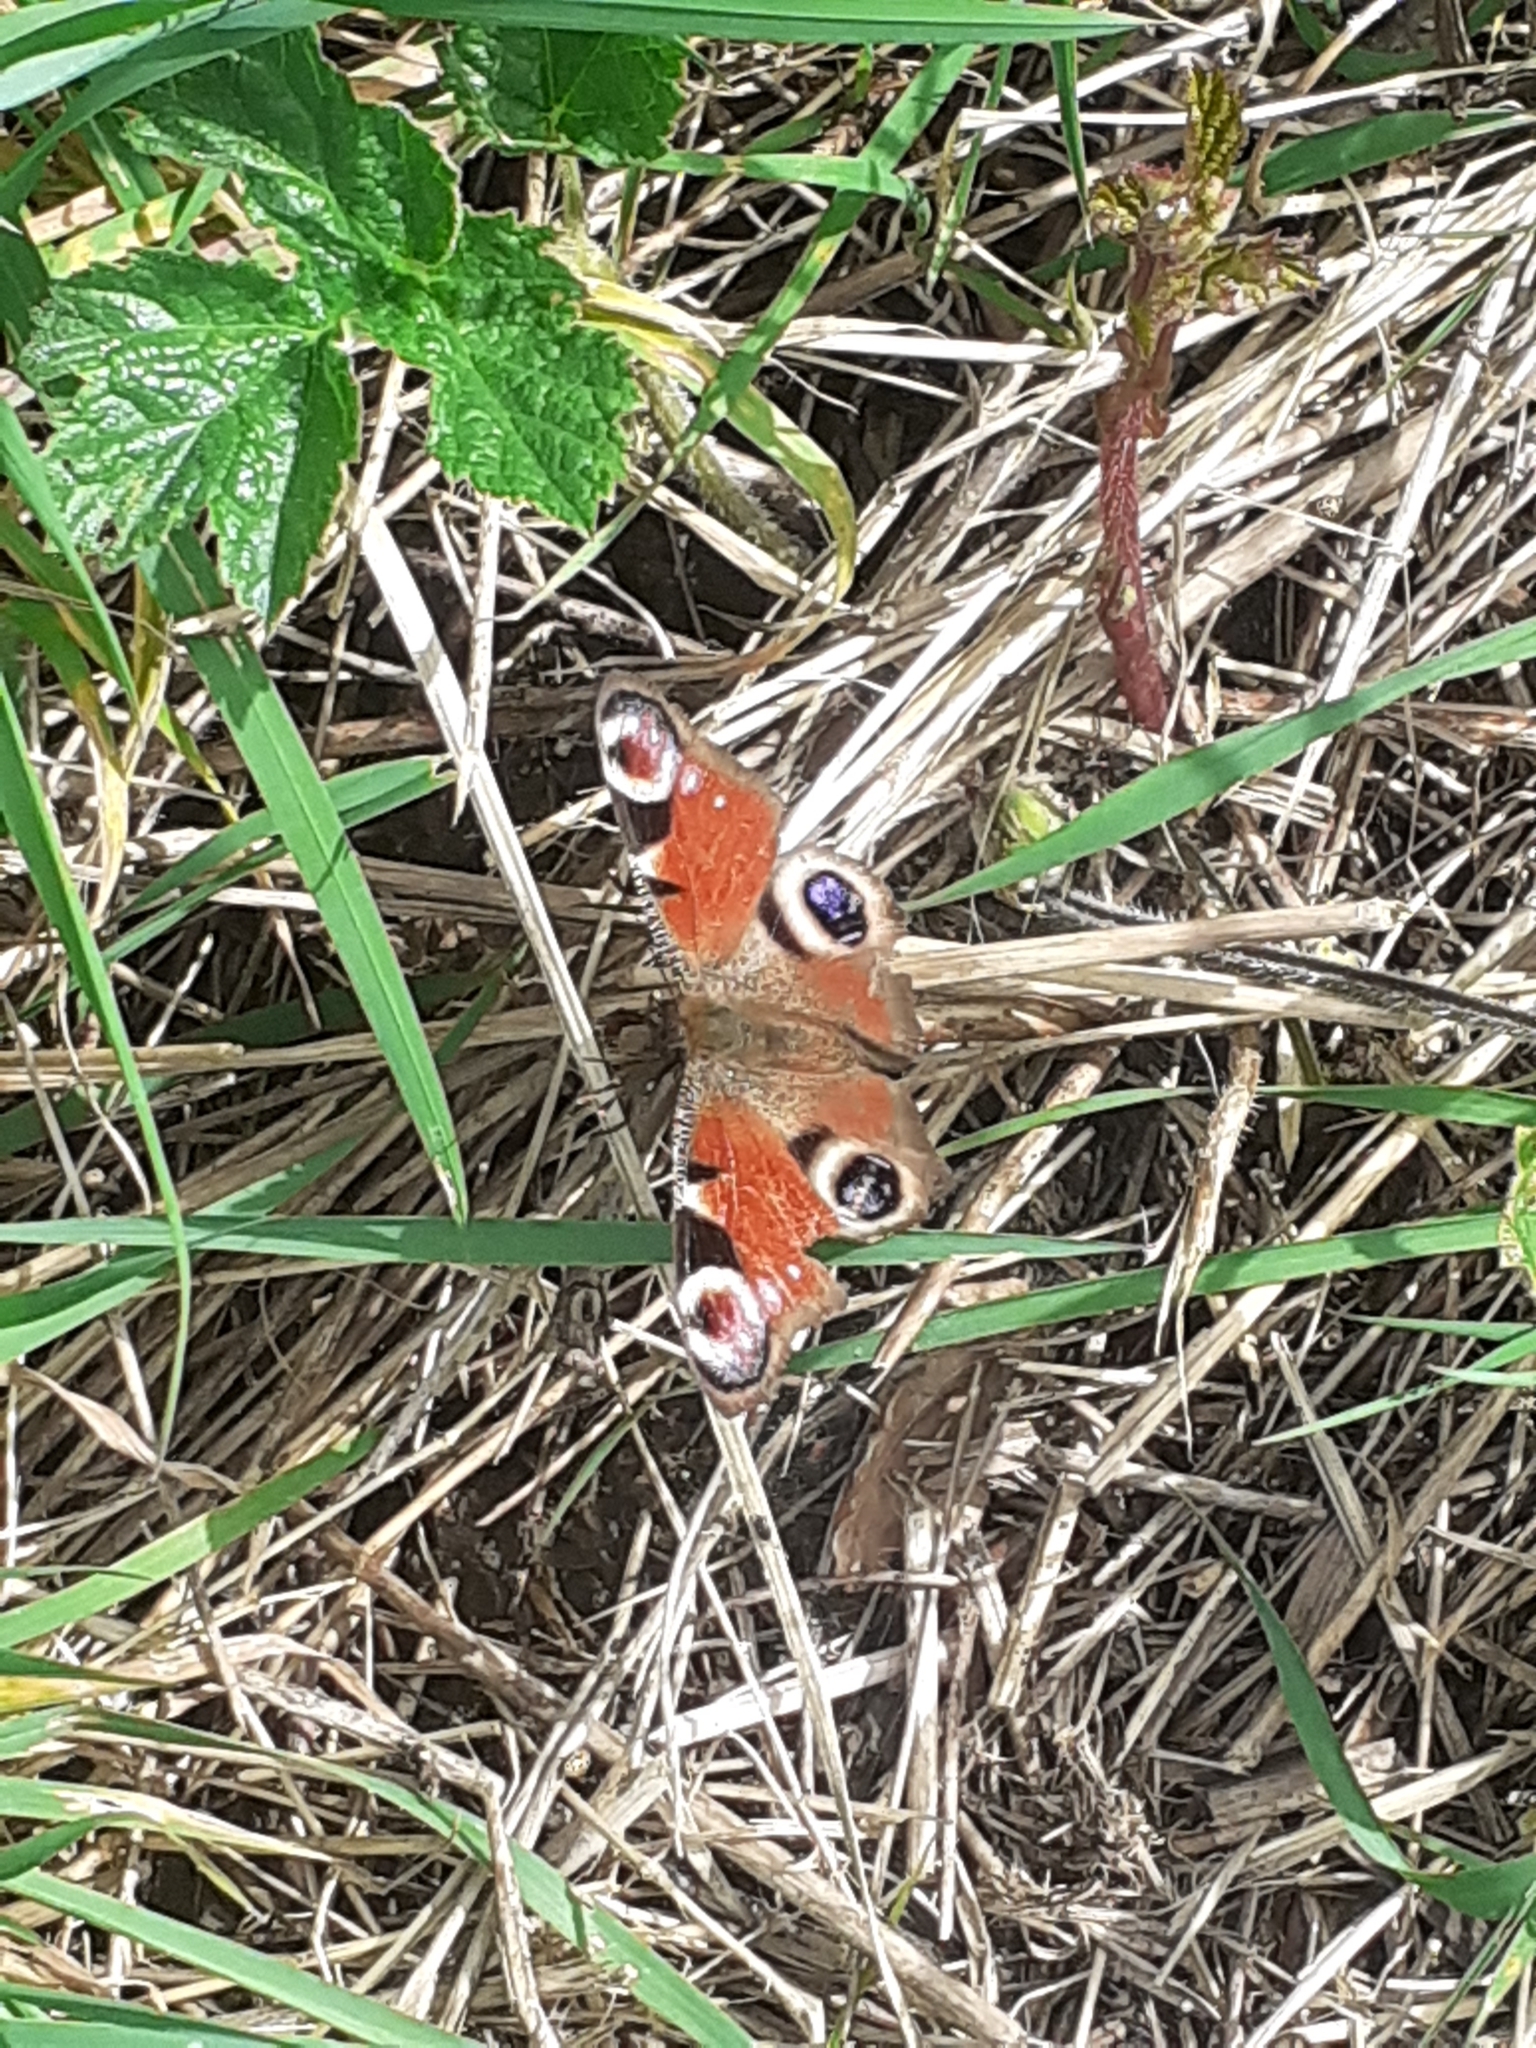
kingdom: Animalia
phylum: Arthropoda
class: Insecta
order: Lepidoptera
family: Nymphalidae
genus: Aglais
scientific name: Aglais io
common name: Peacock
